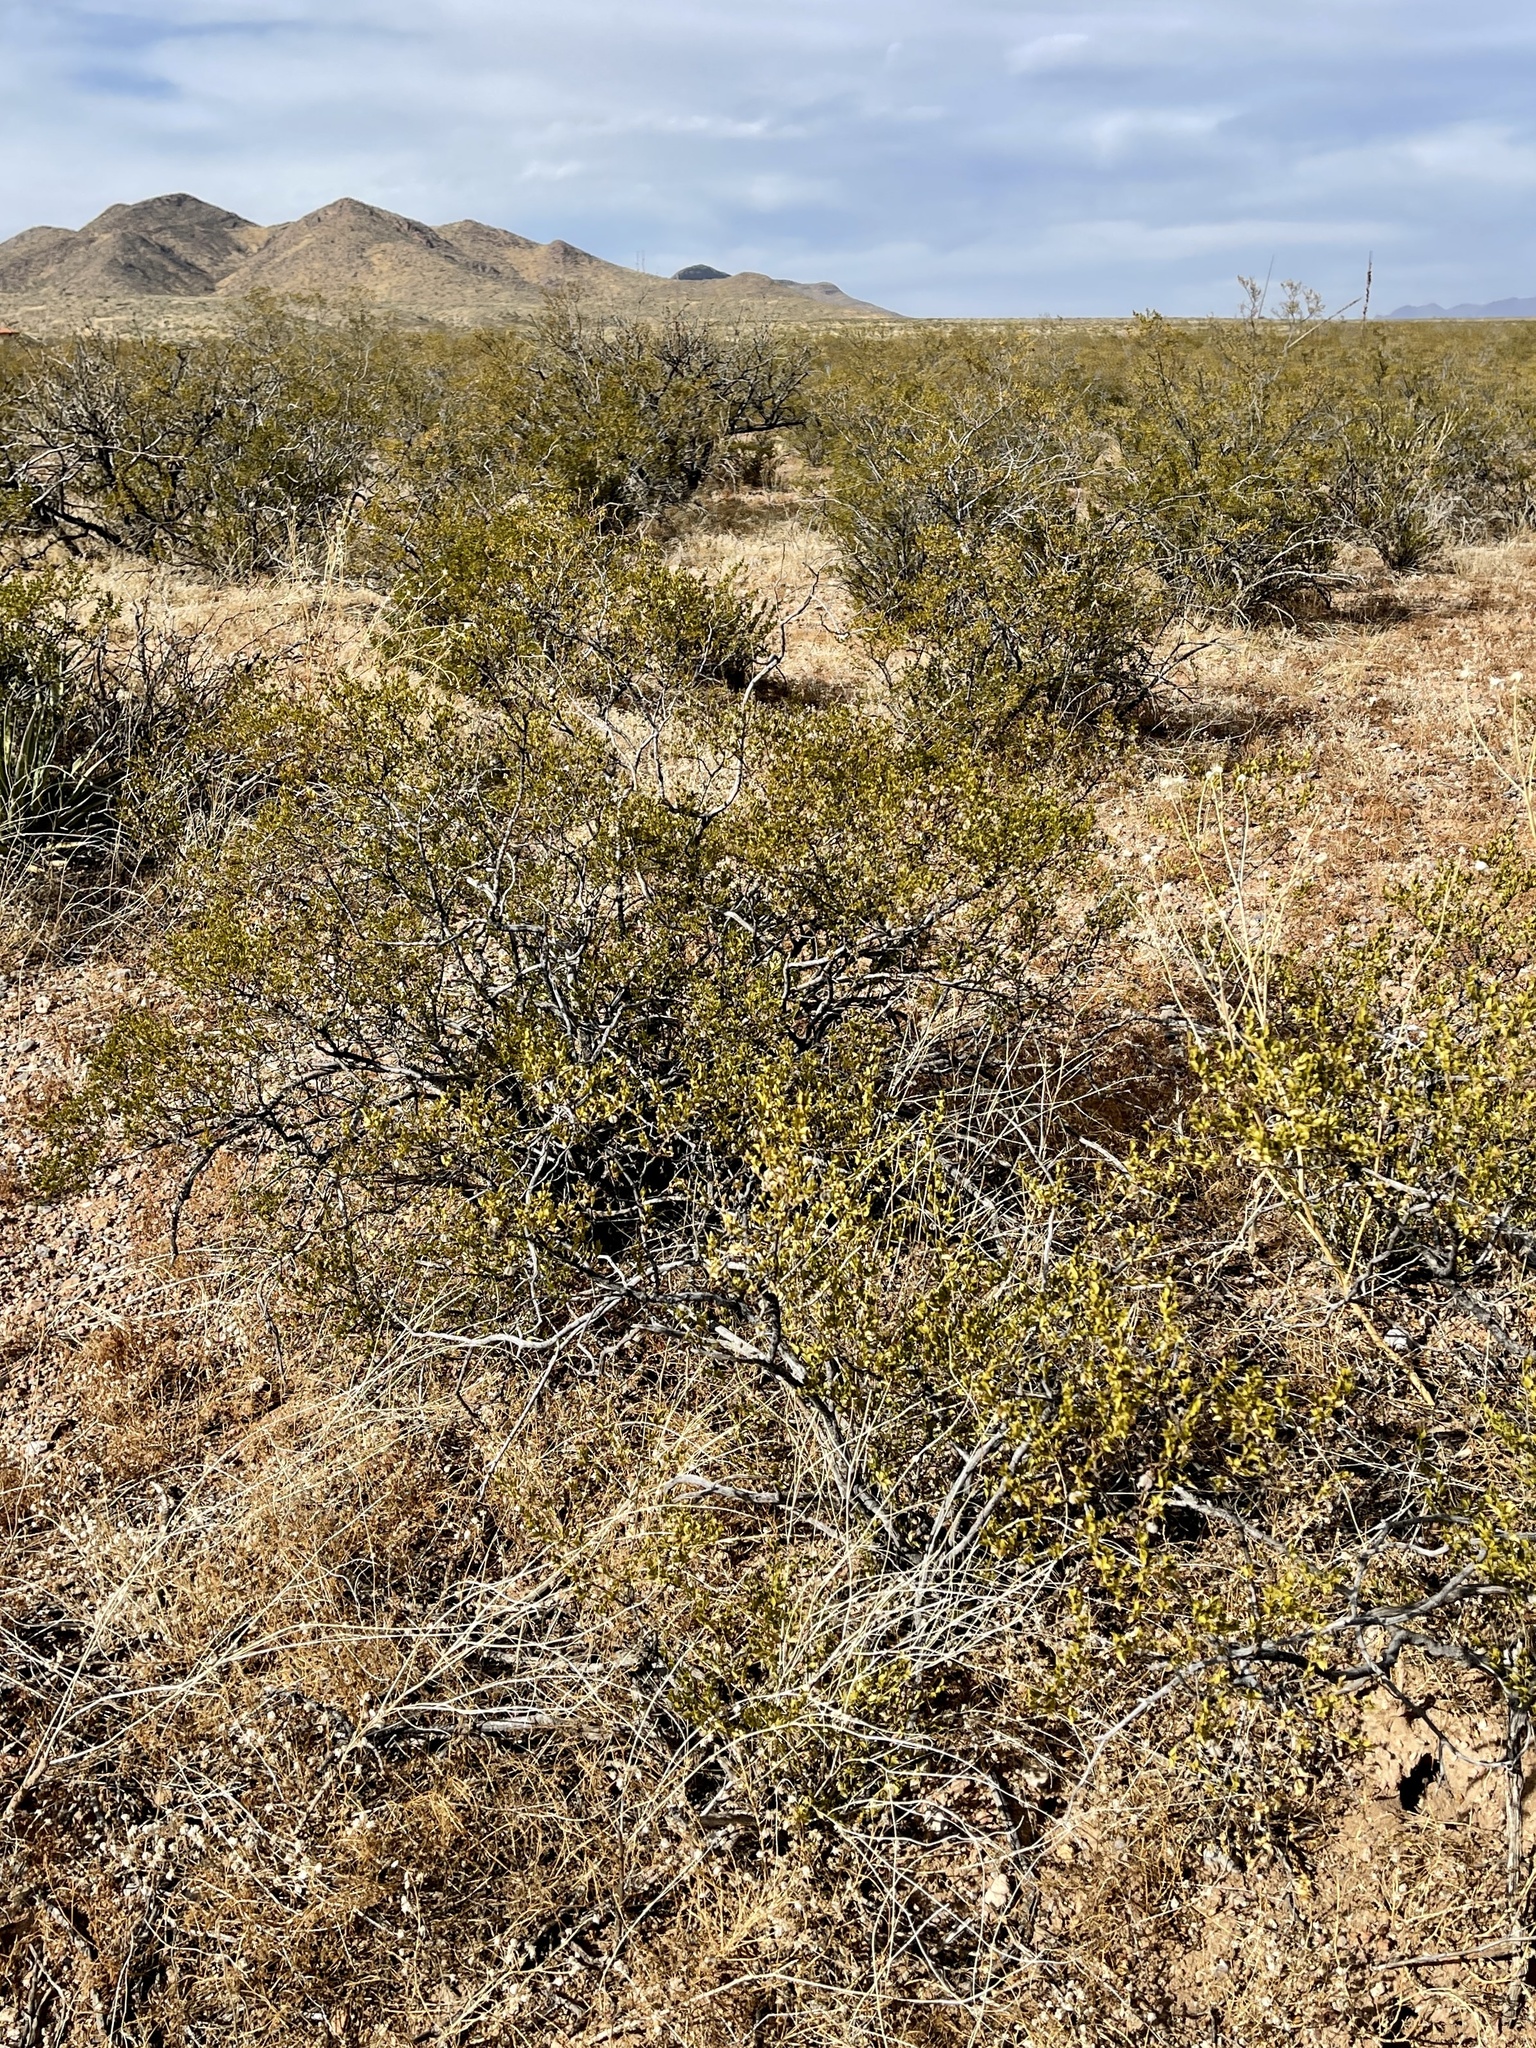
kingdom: Plantae
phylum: Tracheophyta
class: Magnoliopsida
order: Zygophyllales
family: Zygophyllaceae
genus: Larrea
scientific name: Larrea tridentata
